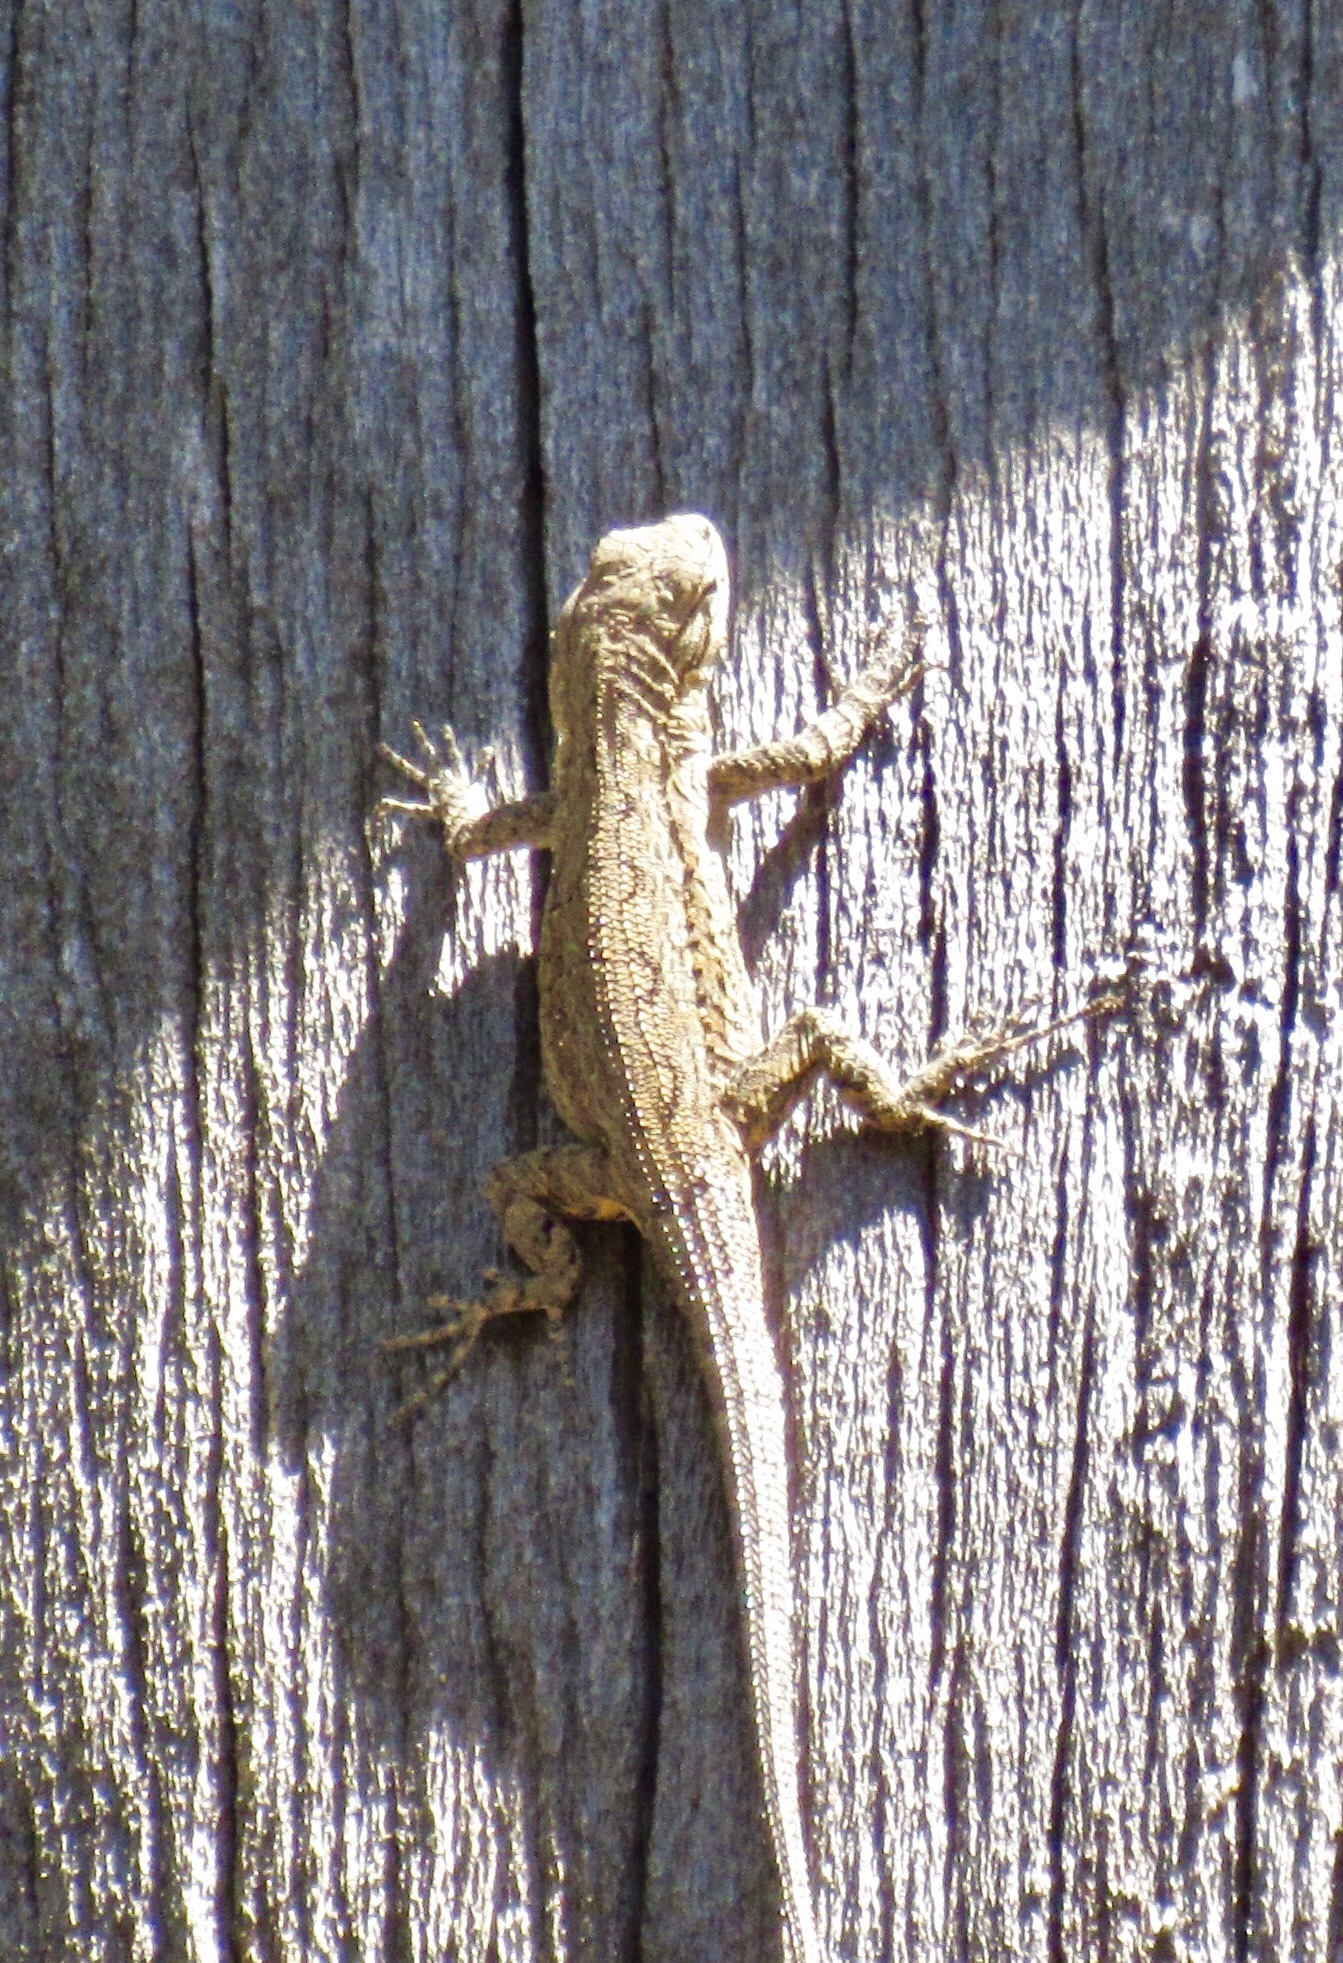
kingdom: Animalia
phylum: Chordata
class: Squamata
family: Phrynosomatidae
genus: Urosaurus
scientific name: Urosaurus ornatus
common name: Ornate tree lizard
